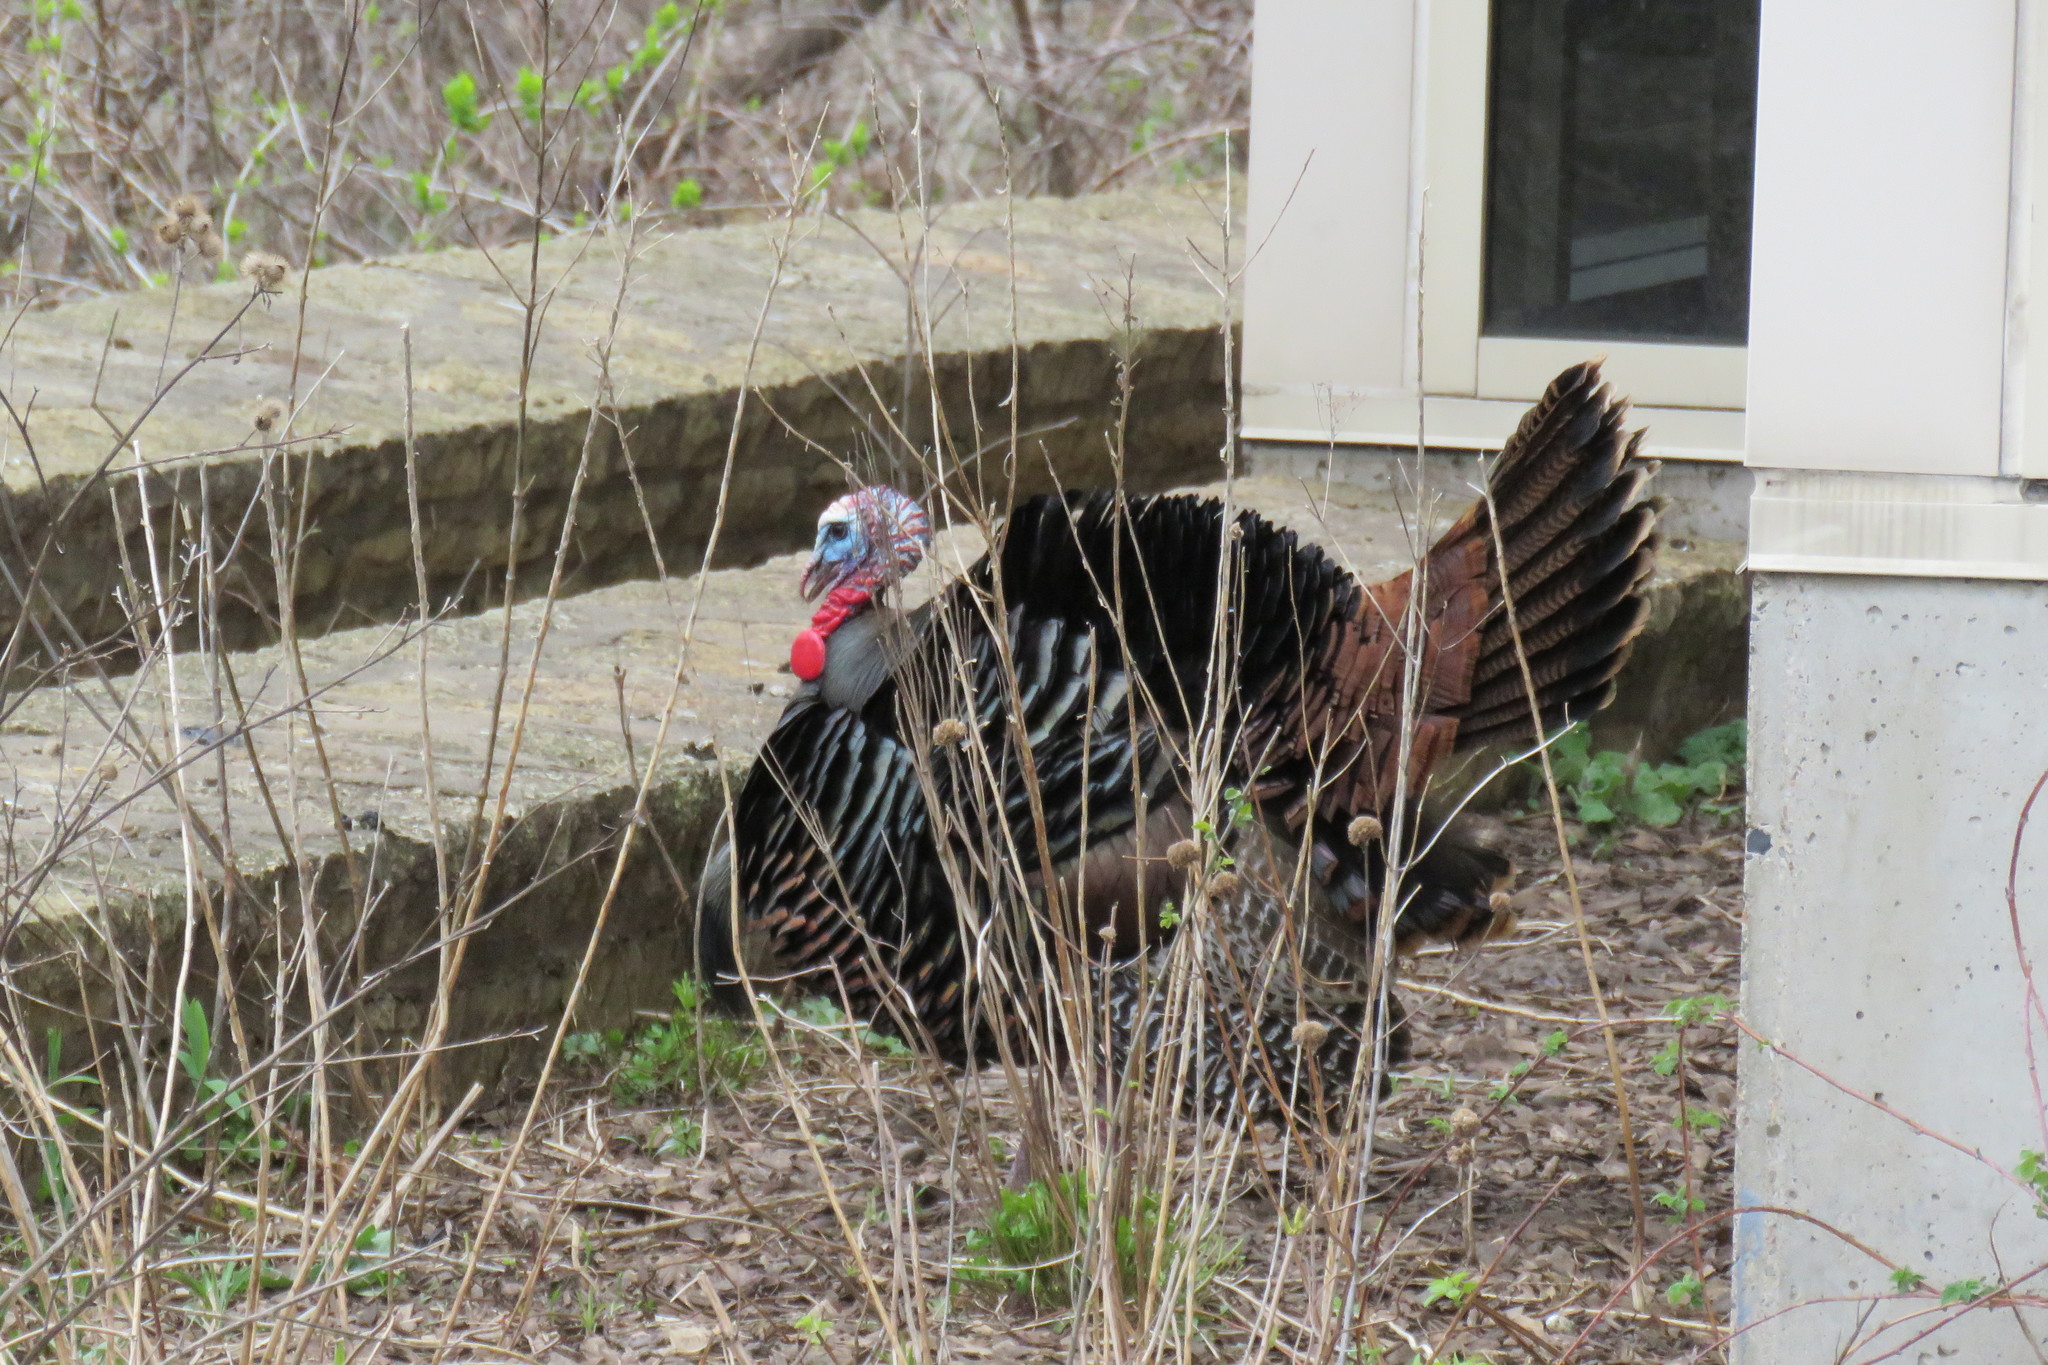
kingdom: Animalia
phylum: Chordata
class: Aves
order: Galliformes
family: Phasianidae
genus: Meleagris
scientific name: Meleagris gallopavo
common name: Wild turkey
